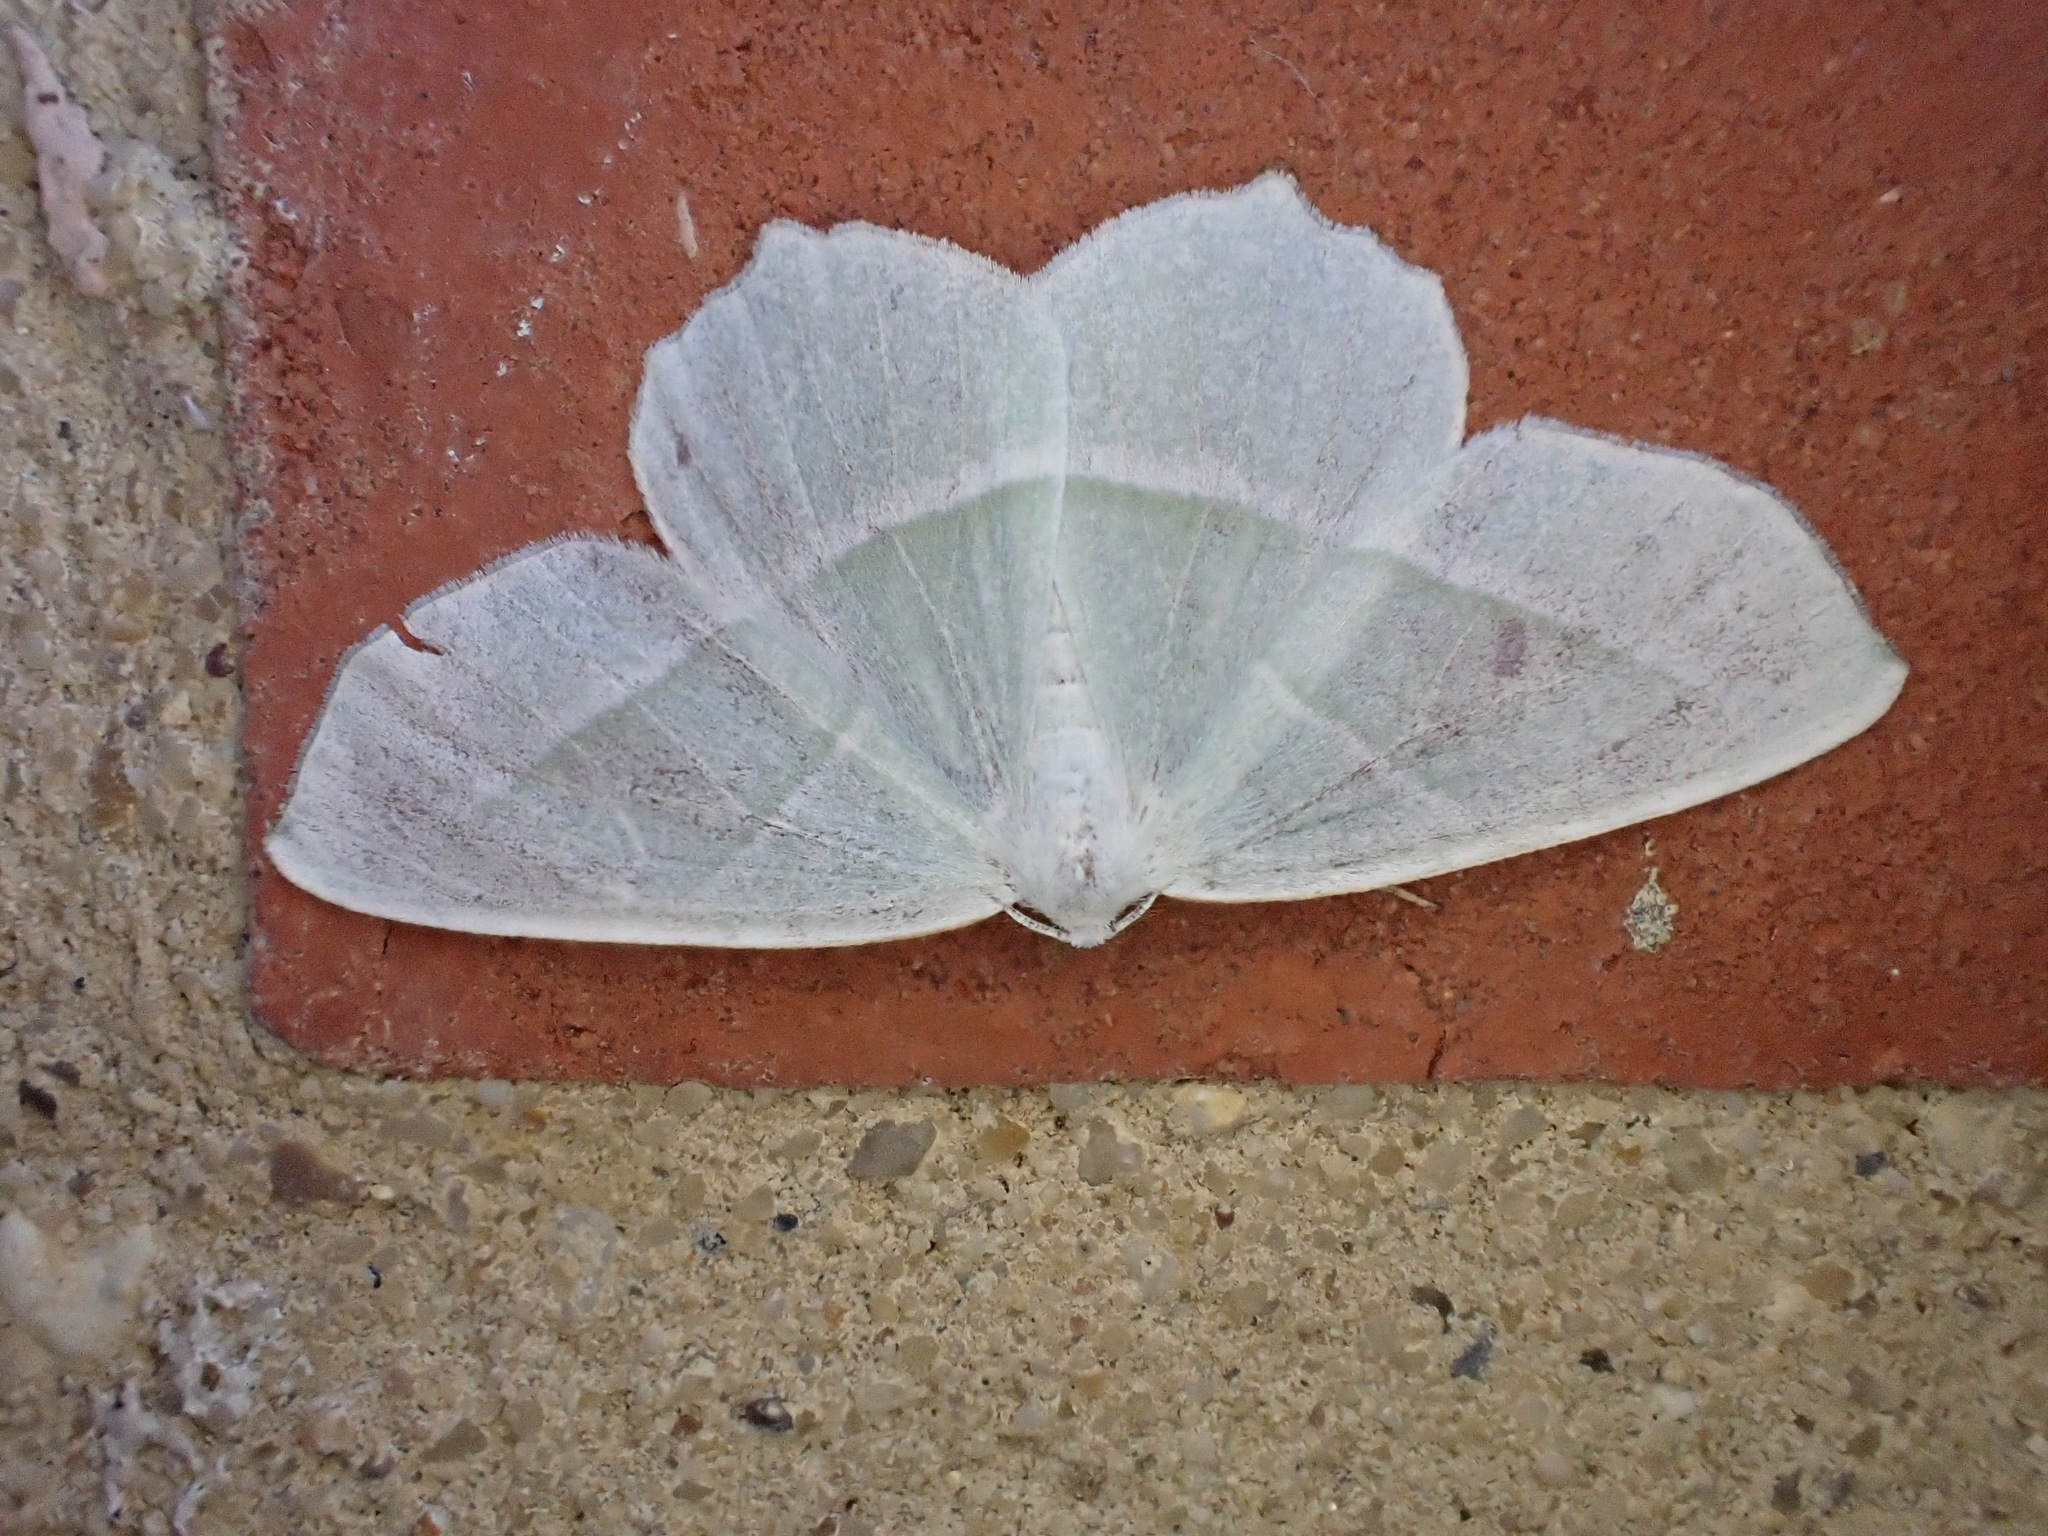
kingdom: Animalia
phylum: Arthropoda
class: Insecta
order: Lepidoptera
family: Geometridae
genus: Campaea
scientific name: Campaea margaritaria
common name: Light emerald
